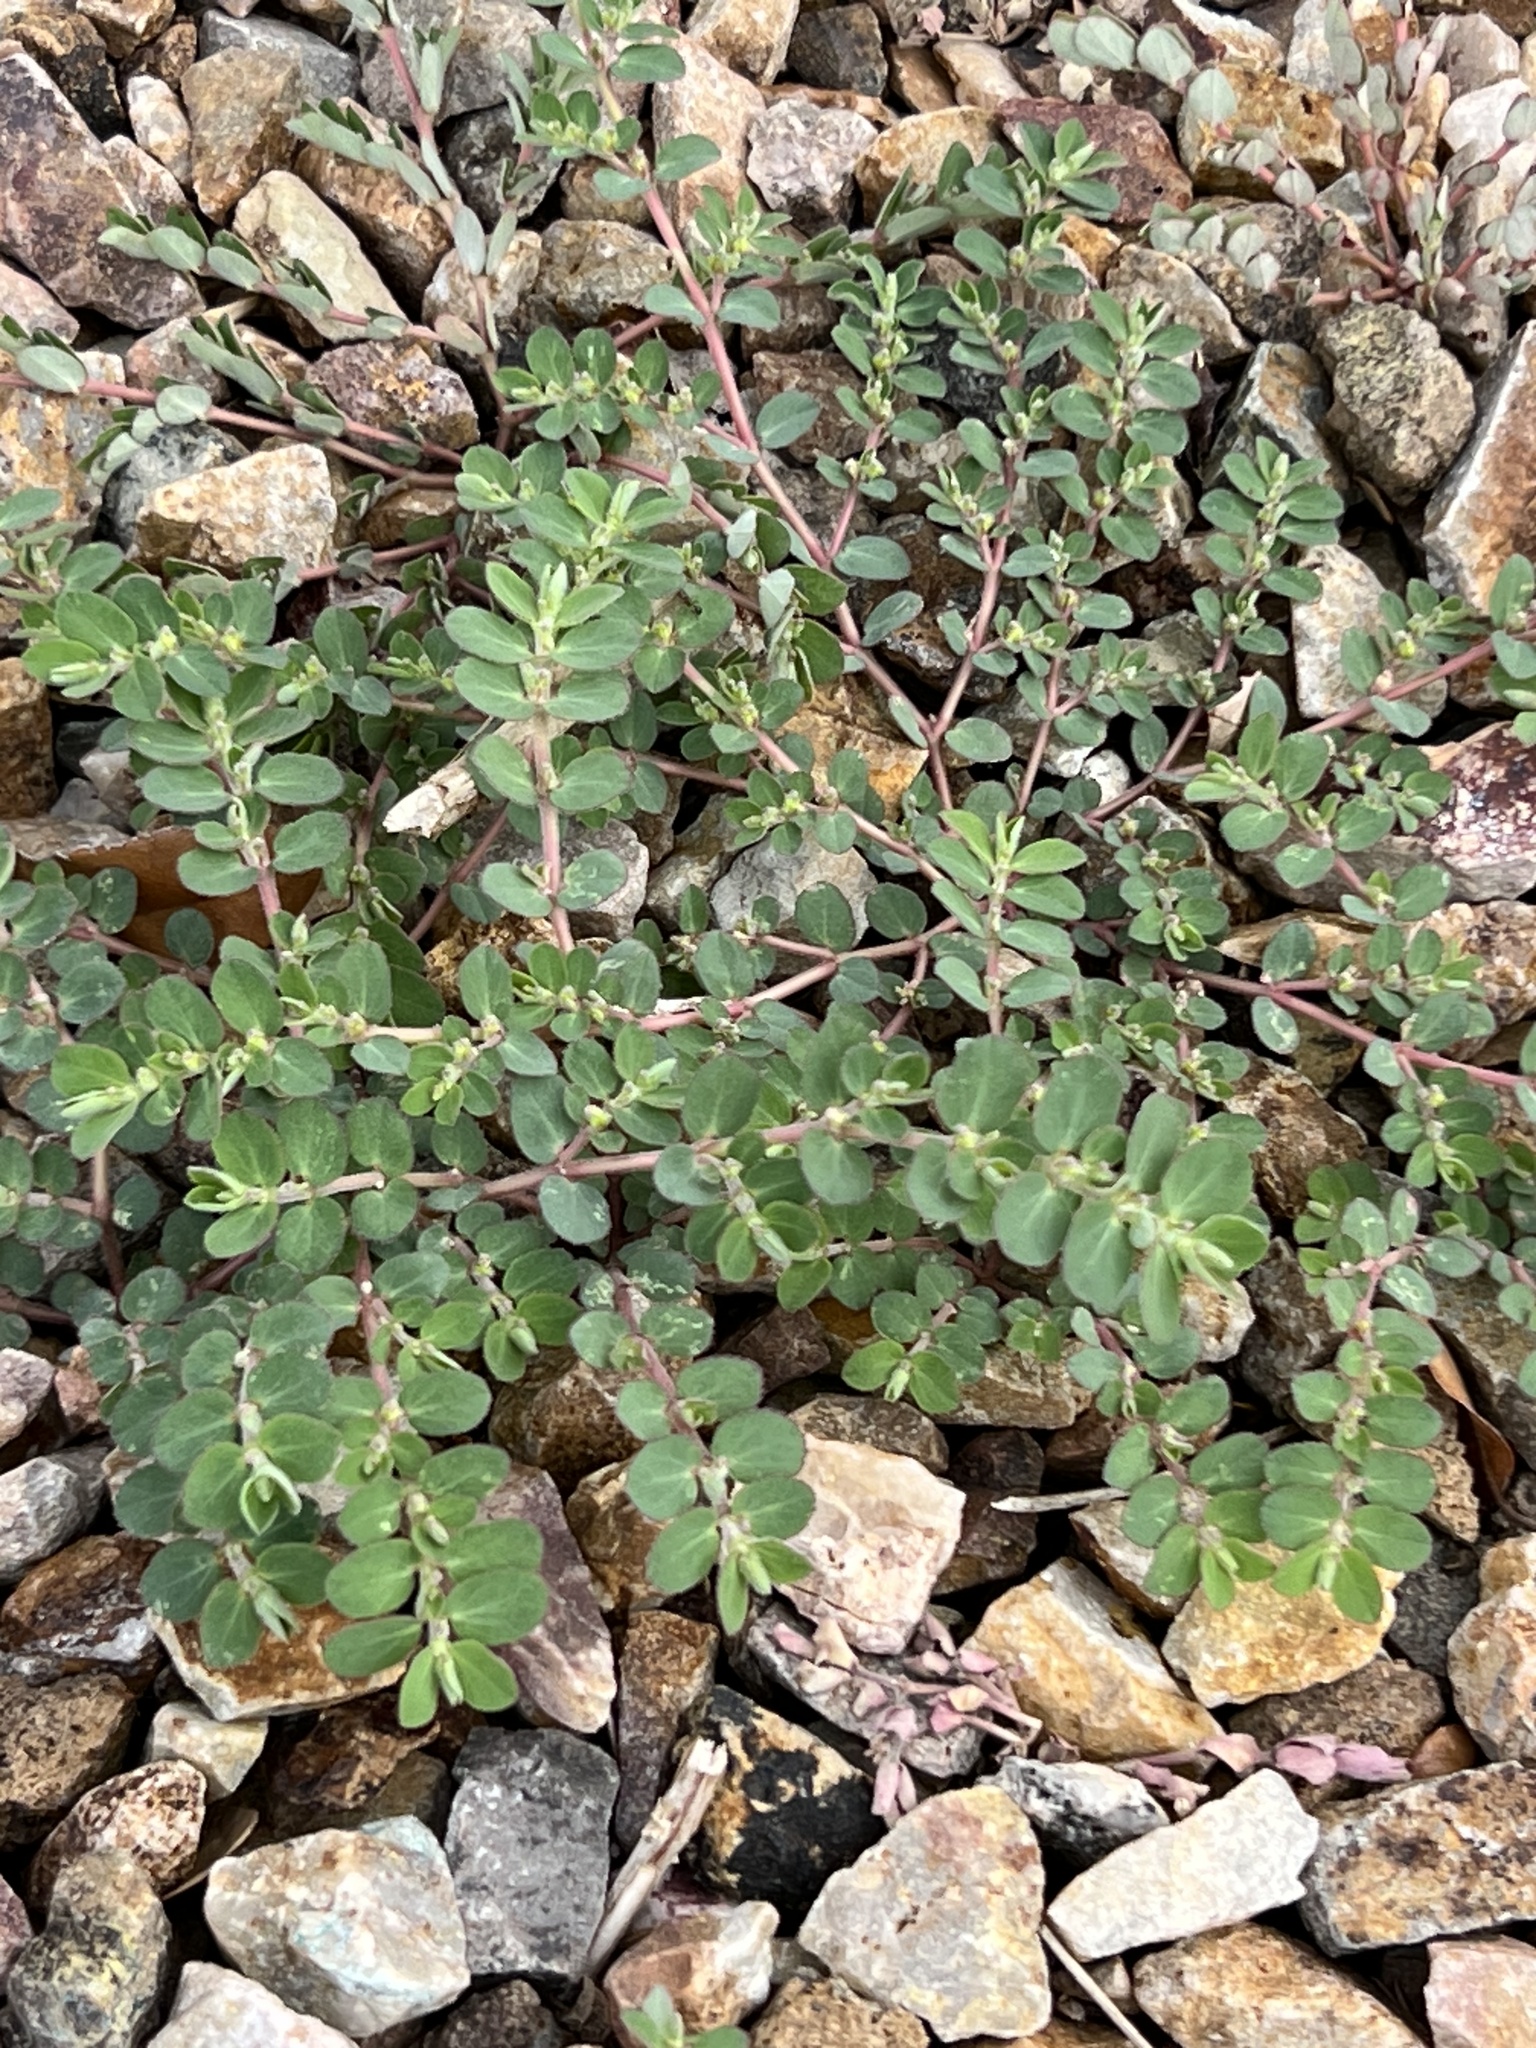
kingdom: Plantae
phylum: Tracheophyta
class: Magnoliopsida
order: Malpighiales
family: Euphorbiaceae
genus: Euphorbia
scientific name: Euphorbia prostrata
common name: Prostrate sandmat
